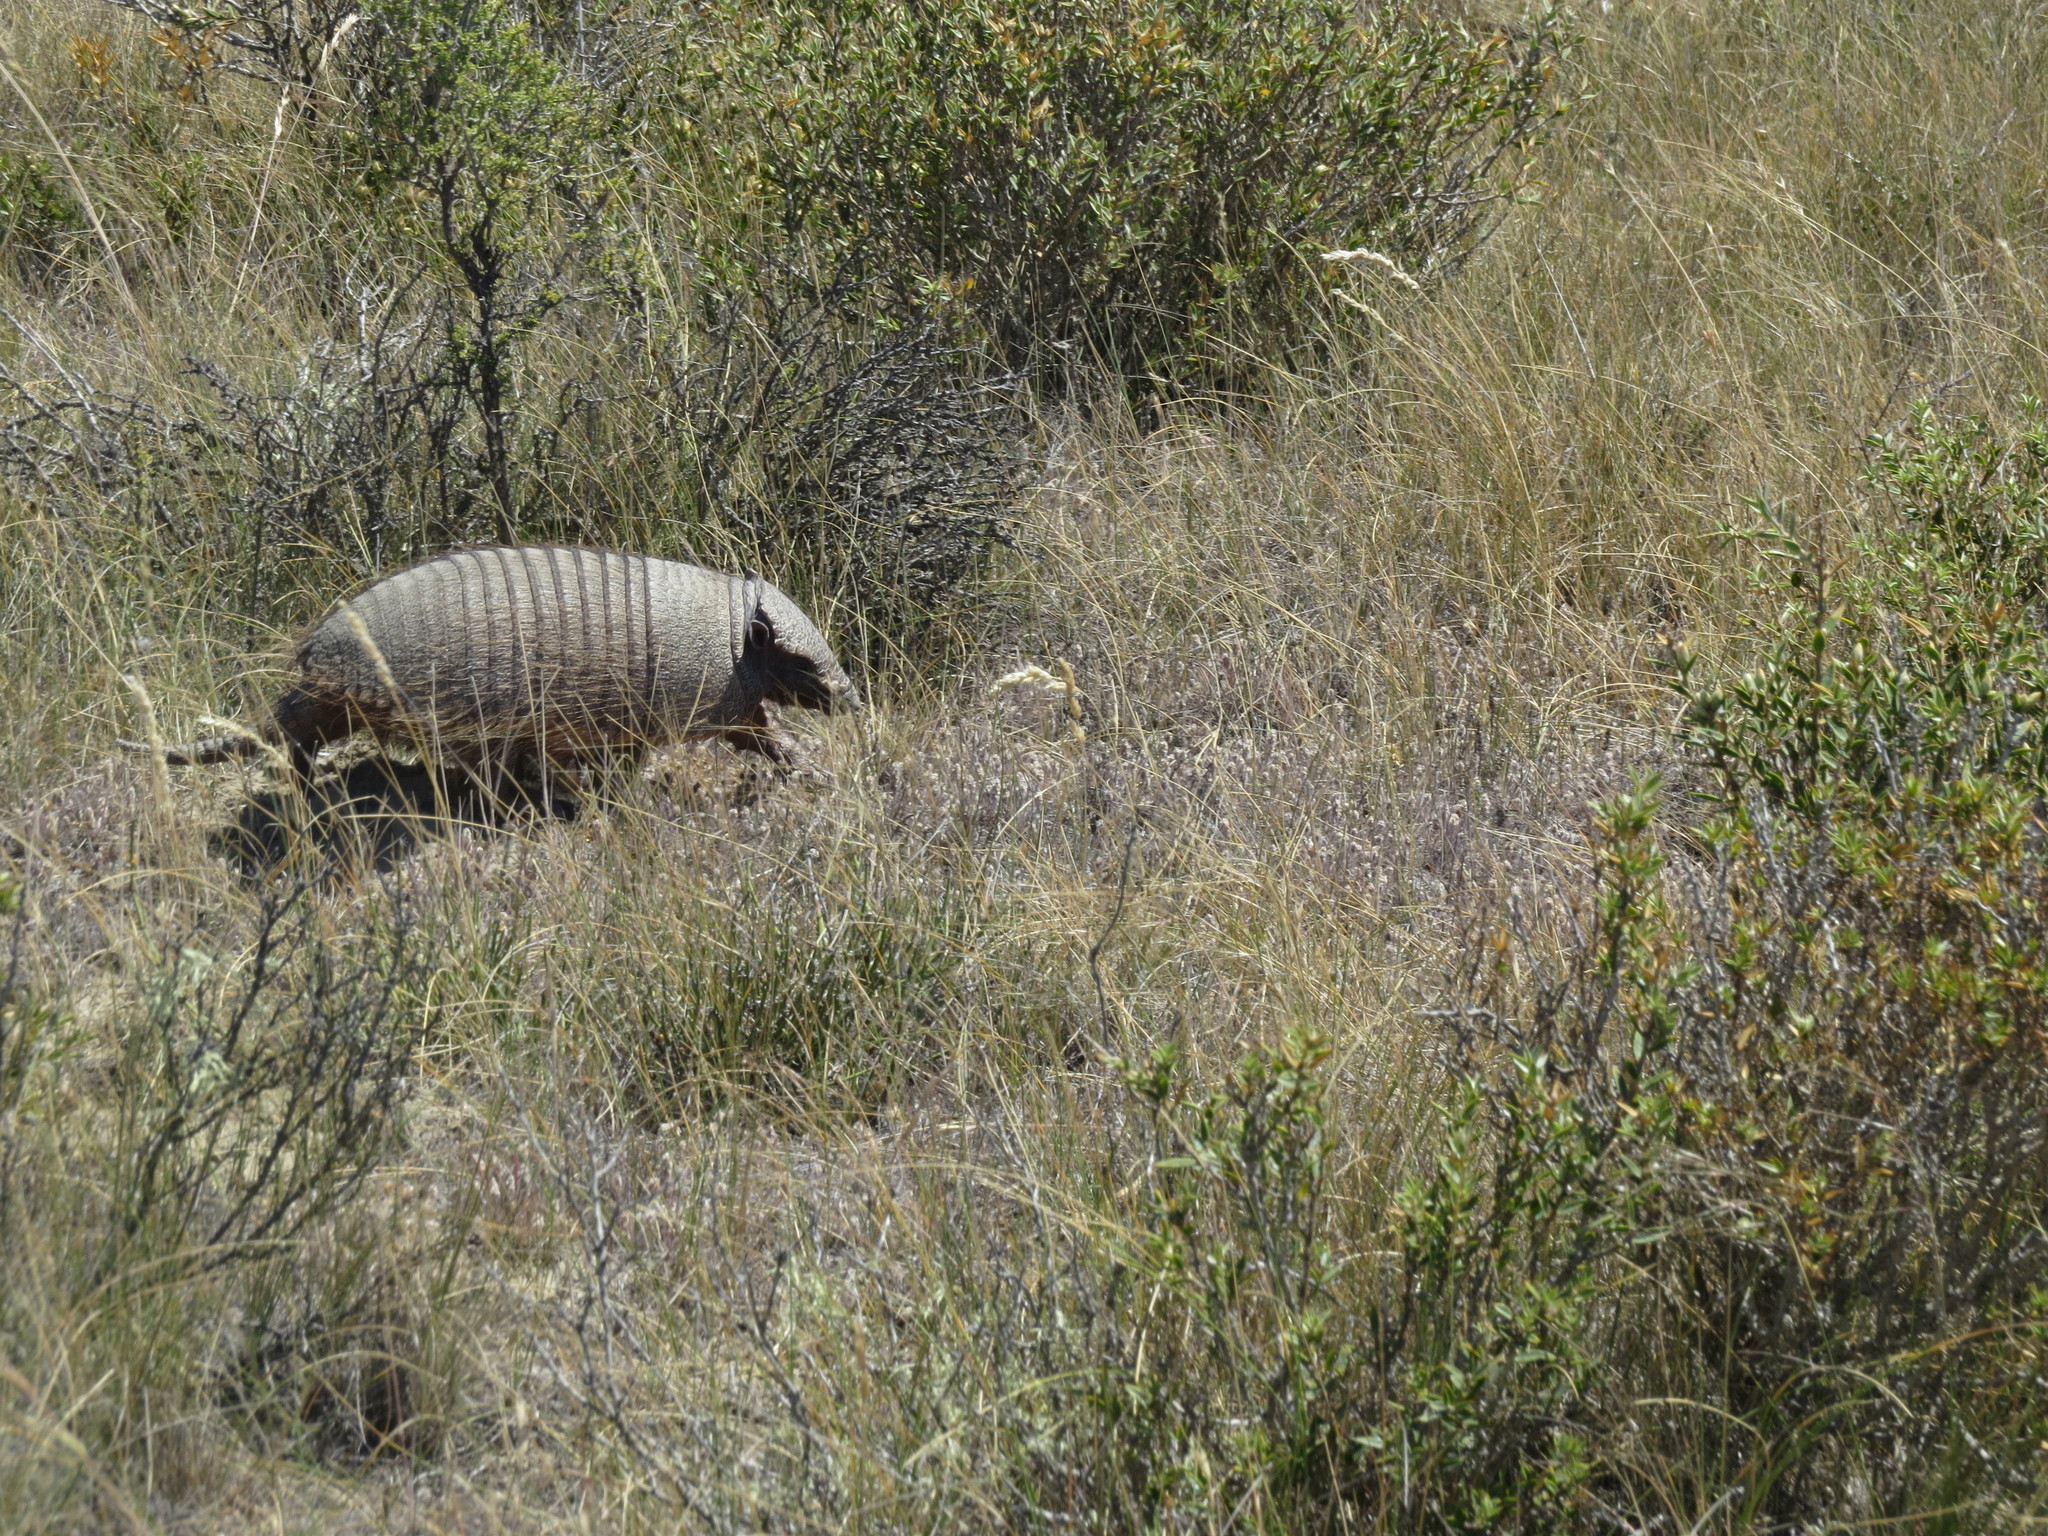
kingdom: Animalia
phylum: Chordata
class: Mammalia
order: Cingulata
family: Dasypodidae
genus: Chaetophractus
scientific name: Chaetophractus villosus
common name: Big hairy armadillo
